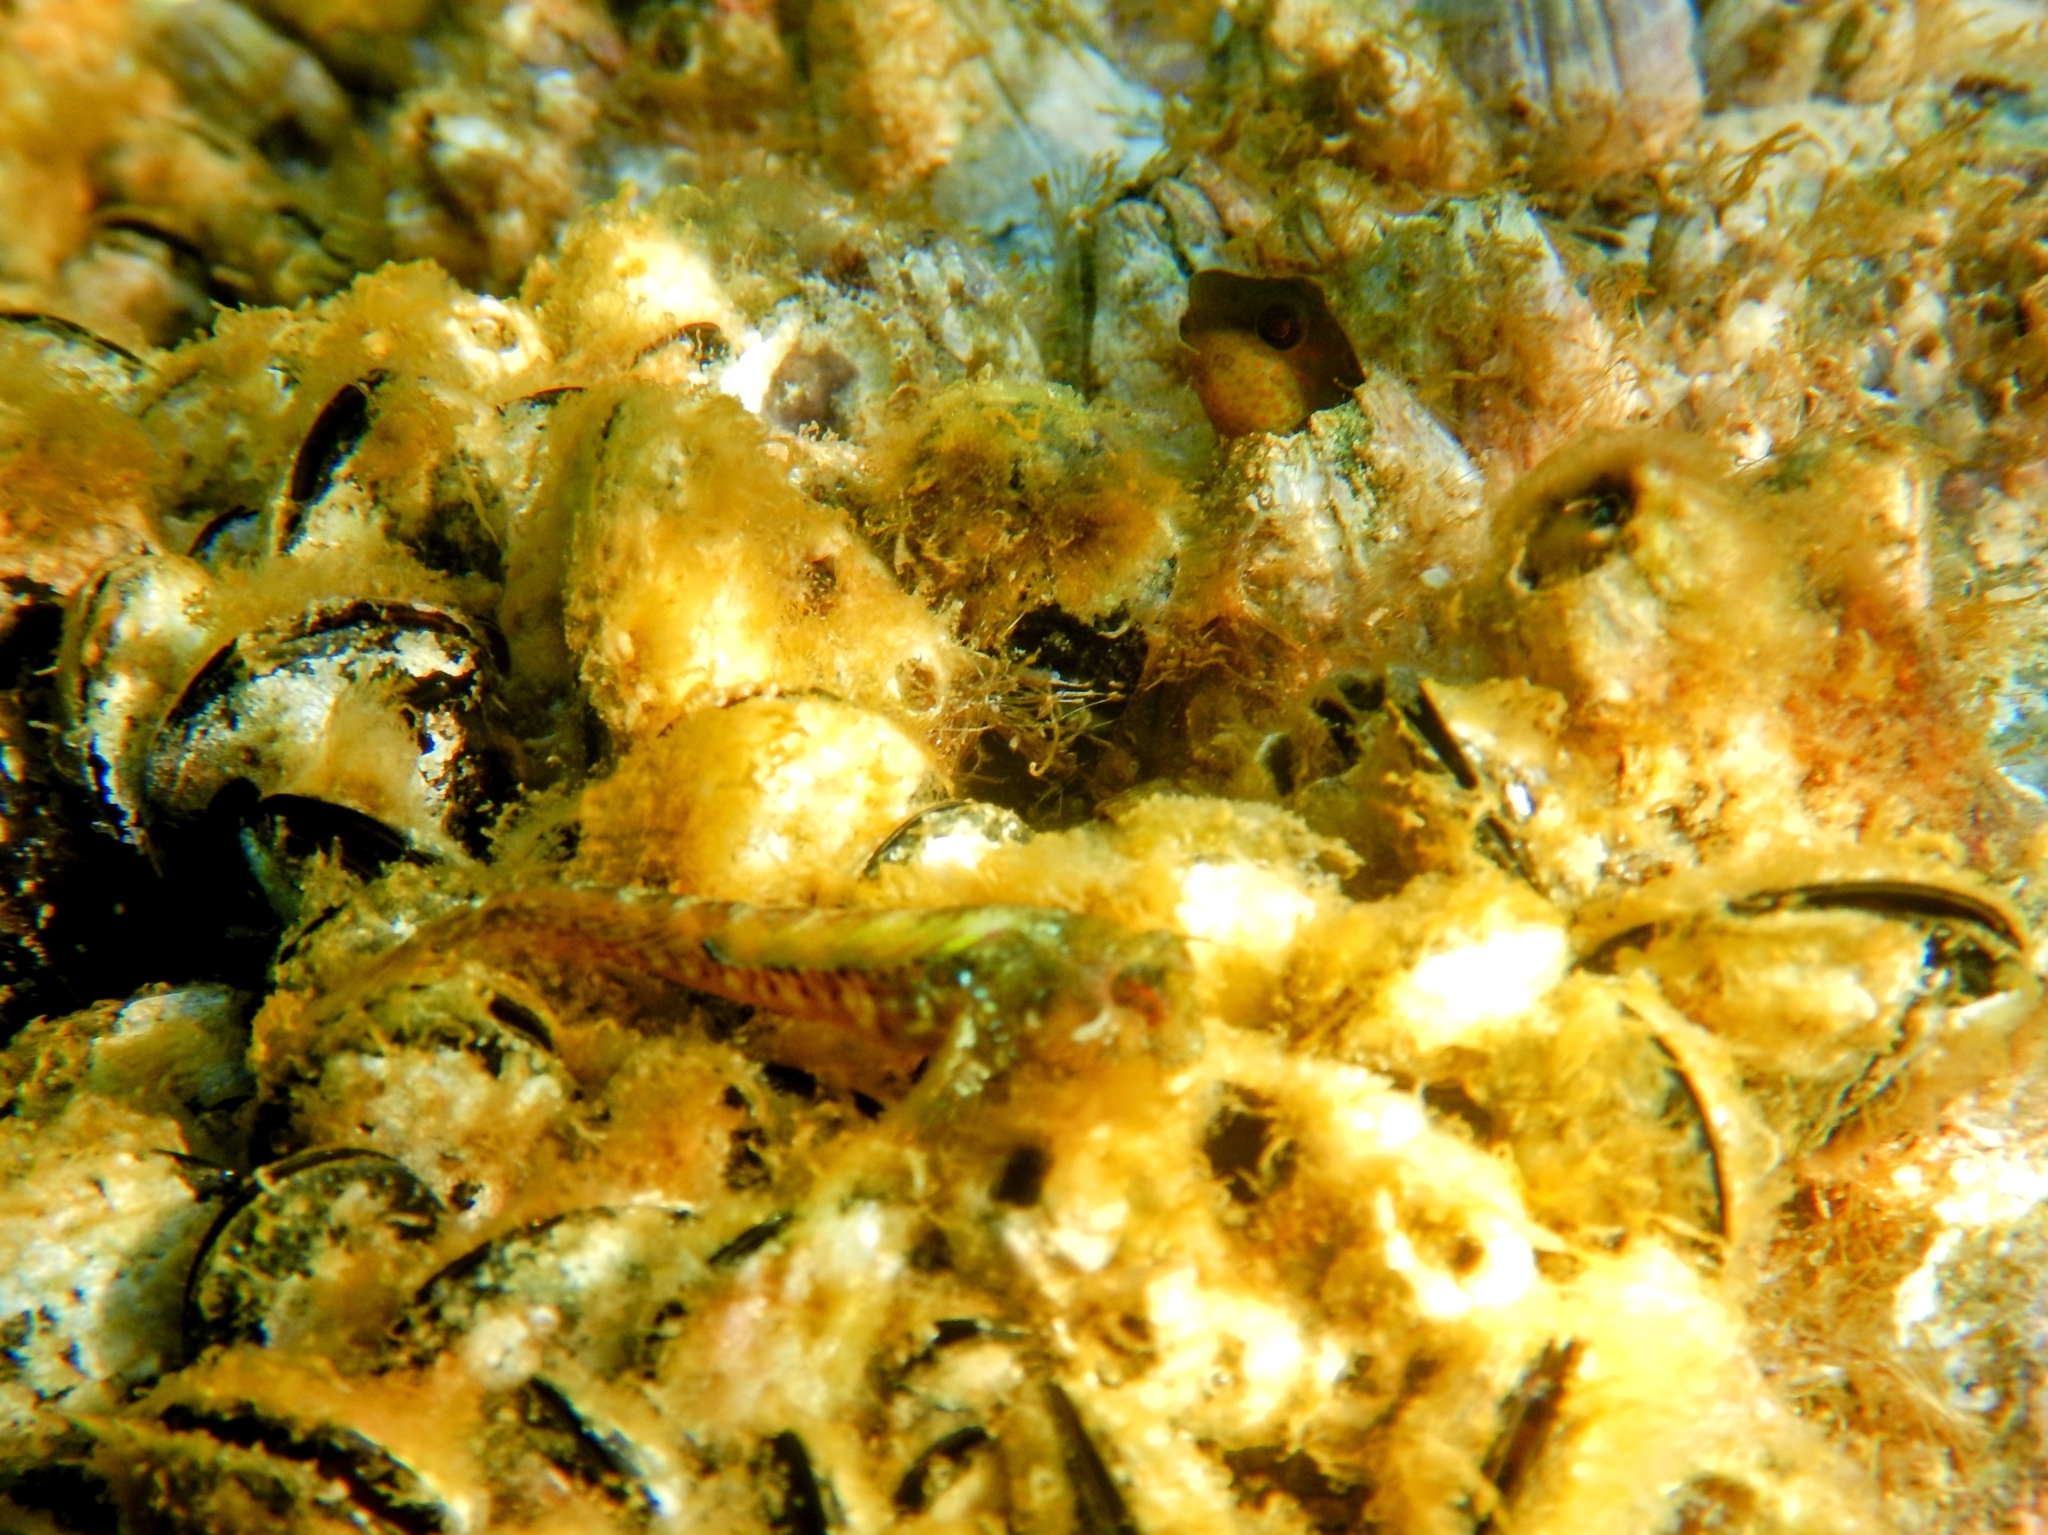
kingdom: Animalia
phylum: Chordata
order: Perciformes
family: Blenniidae
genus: Parablennius
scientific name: Parablennius incognitus
